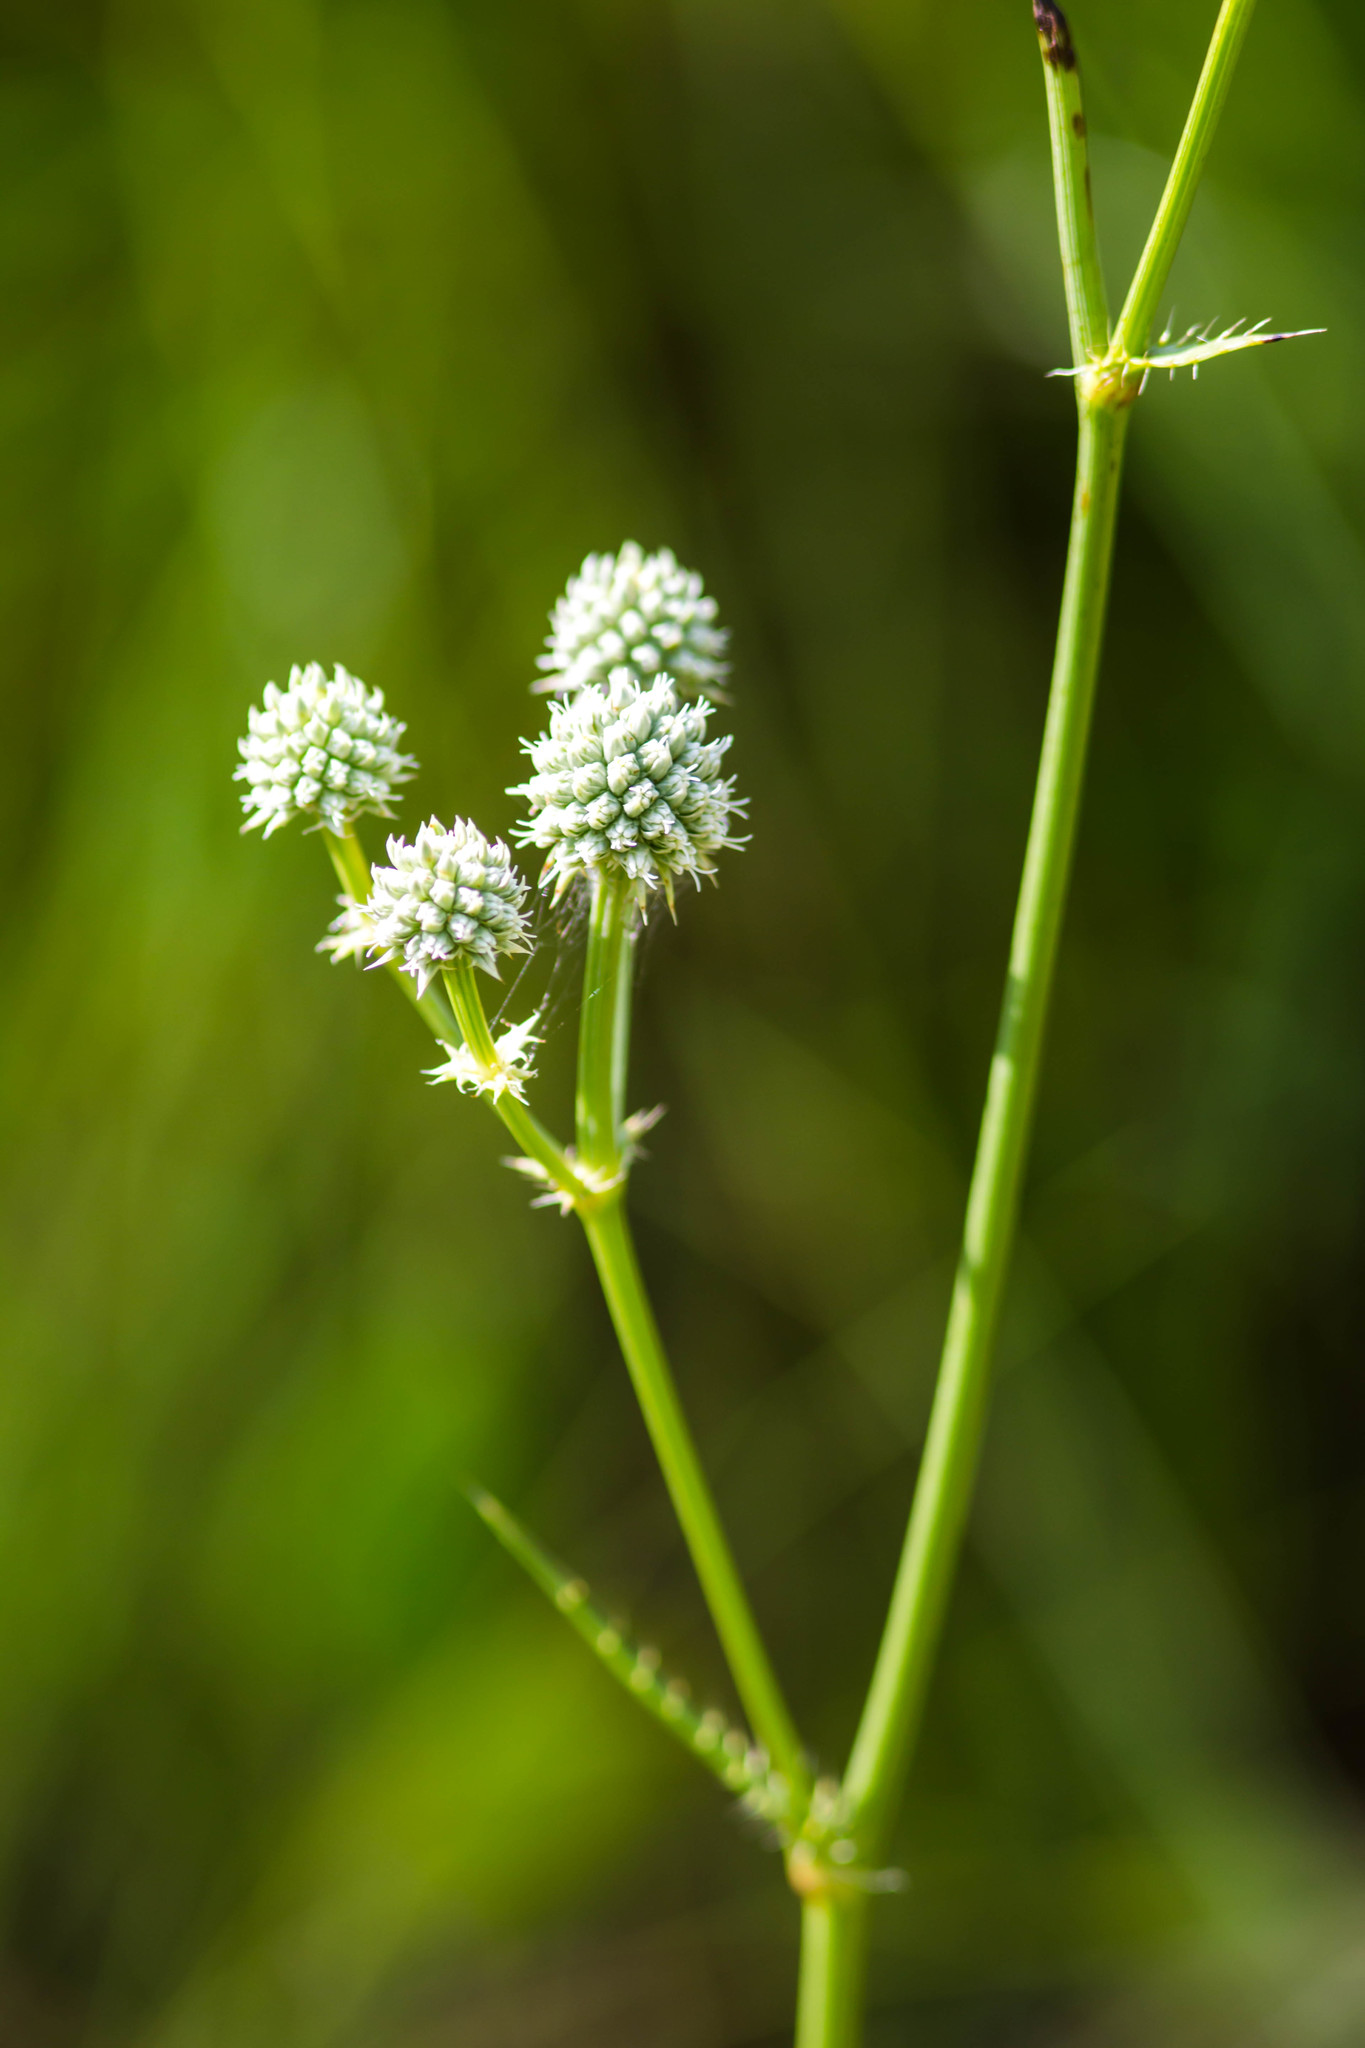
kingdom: Plantae
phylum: Tracheophyta
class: Magnoliopsida
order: Apiales
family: Apiaceae
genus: Eryngium
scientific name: Eryngium yuccifolium
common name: Button eryngo
